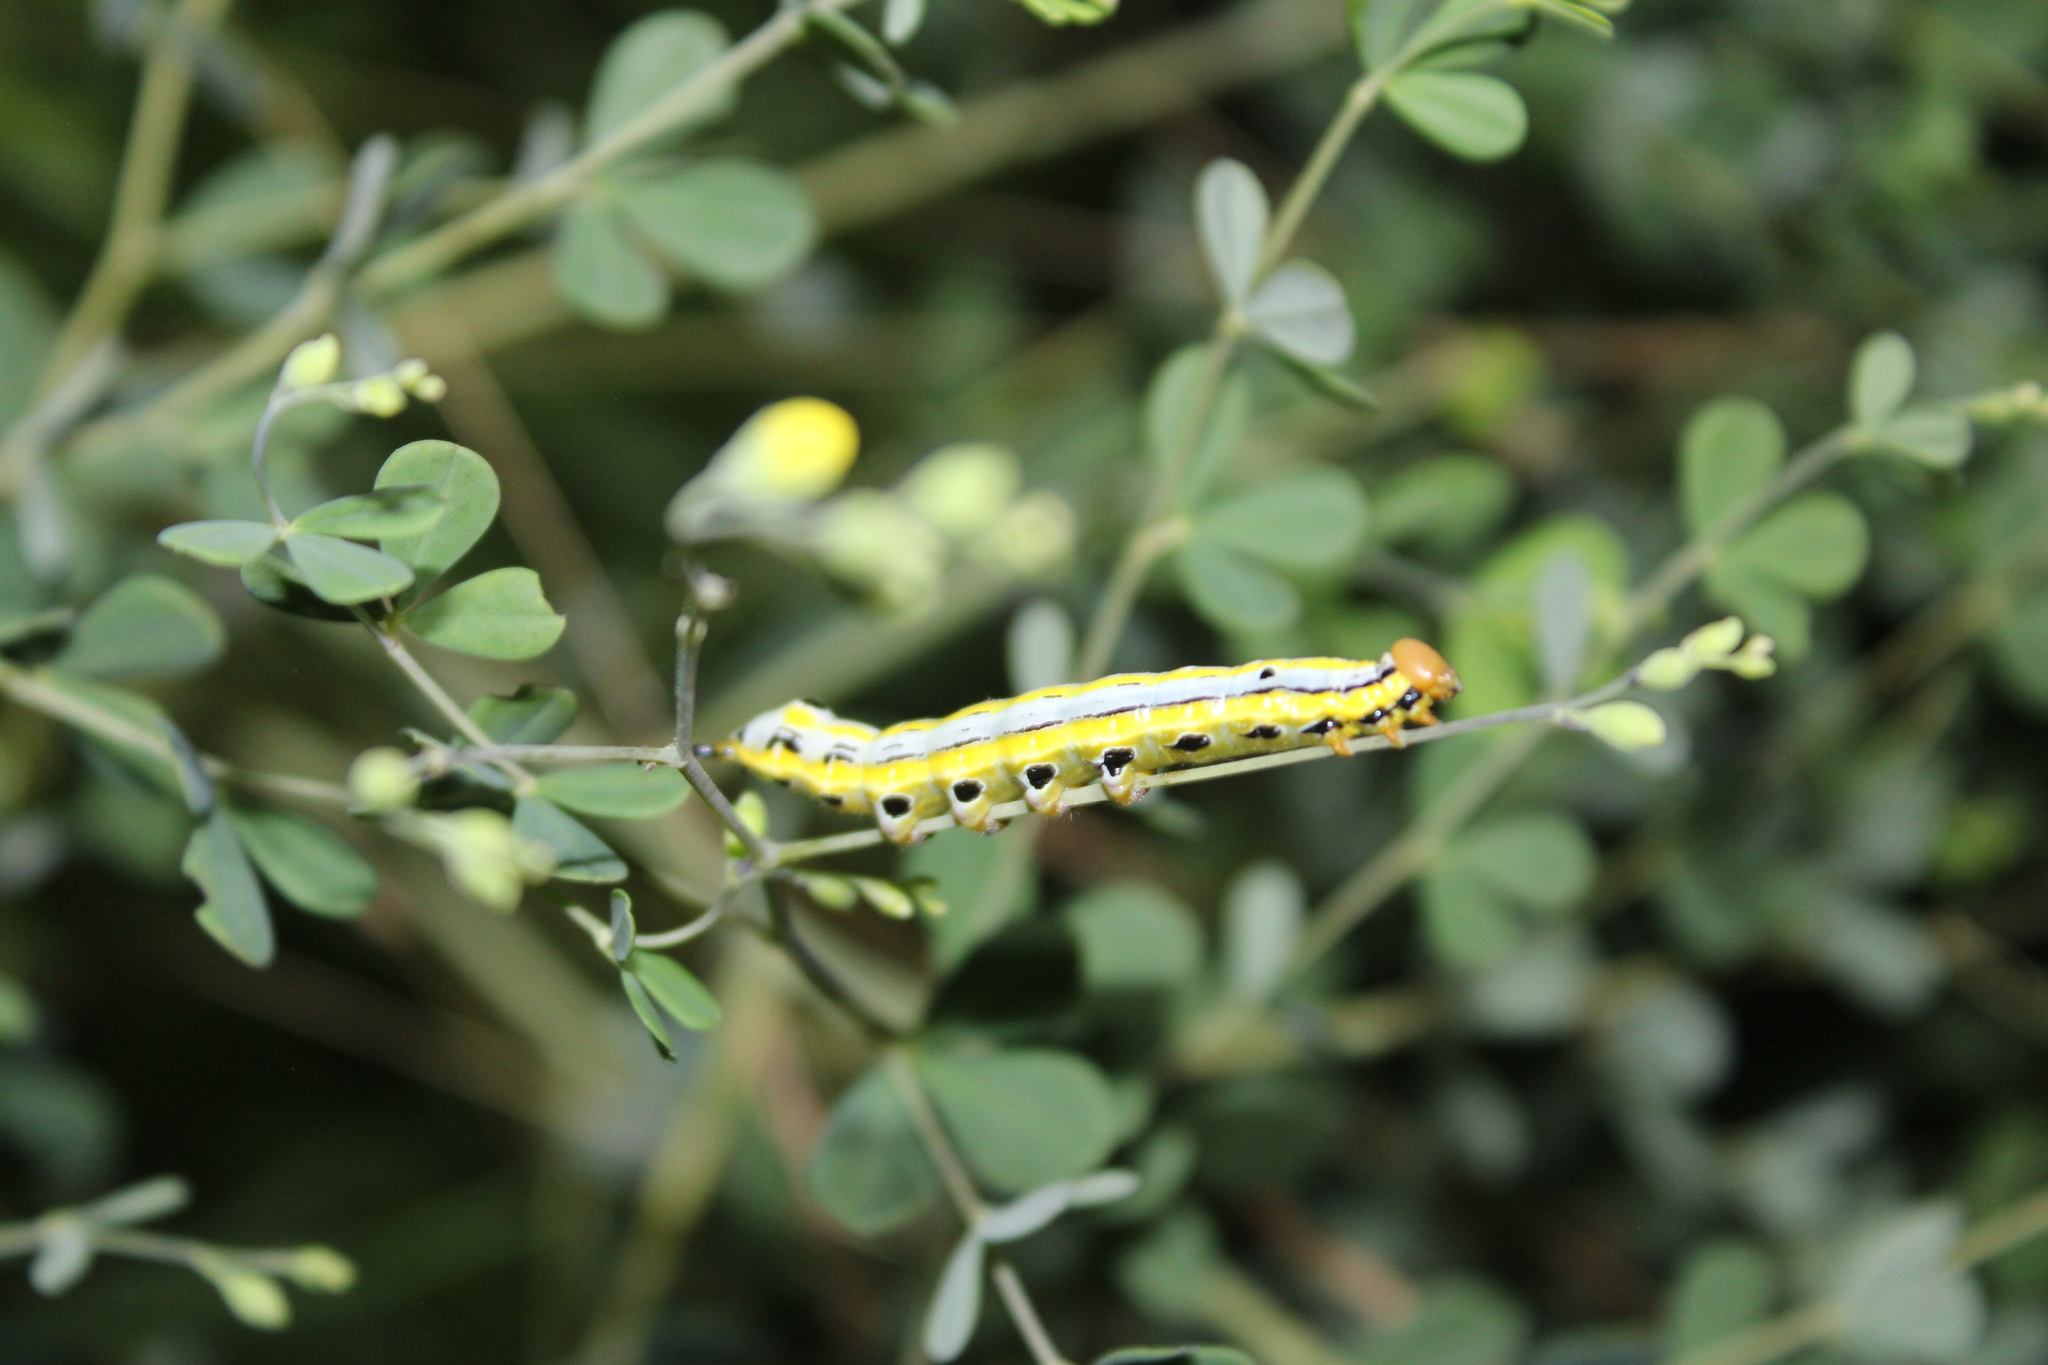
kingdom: Animalia
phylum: Arthropoda
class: Insecta
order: Lepidoptera
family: Notodontidae
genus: Dasylophia
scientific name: Dasylophia anguina
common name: Black-spotted prominent
